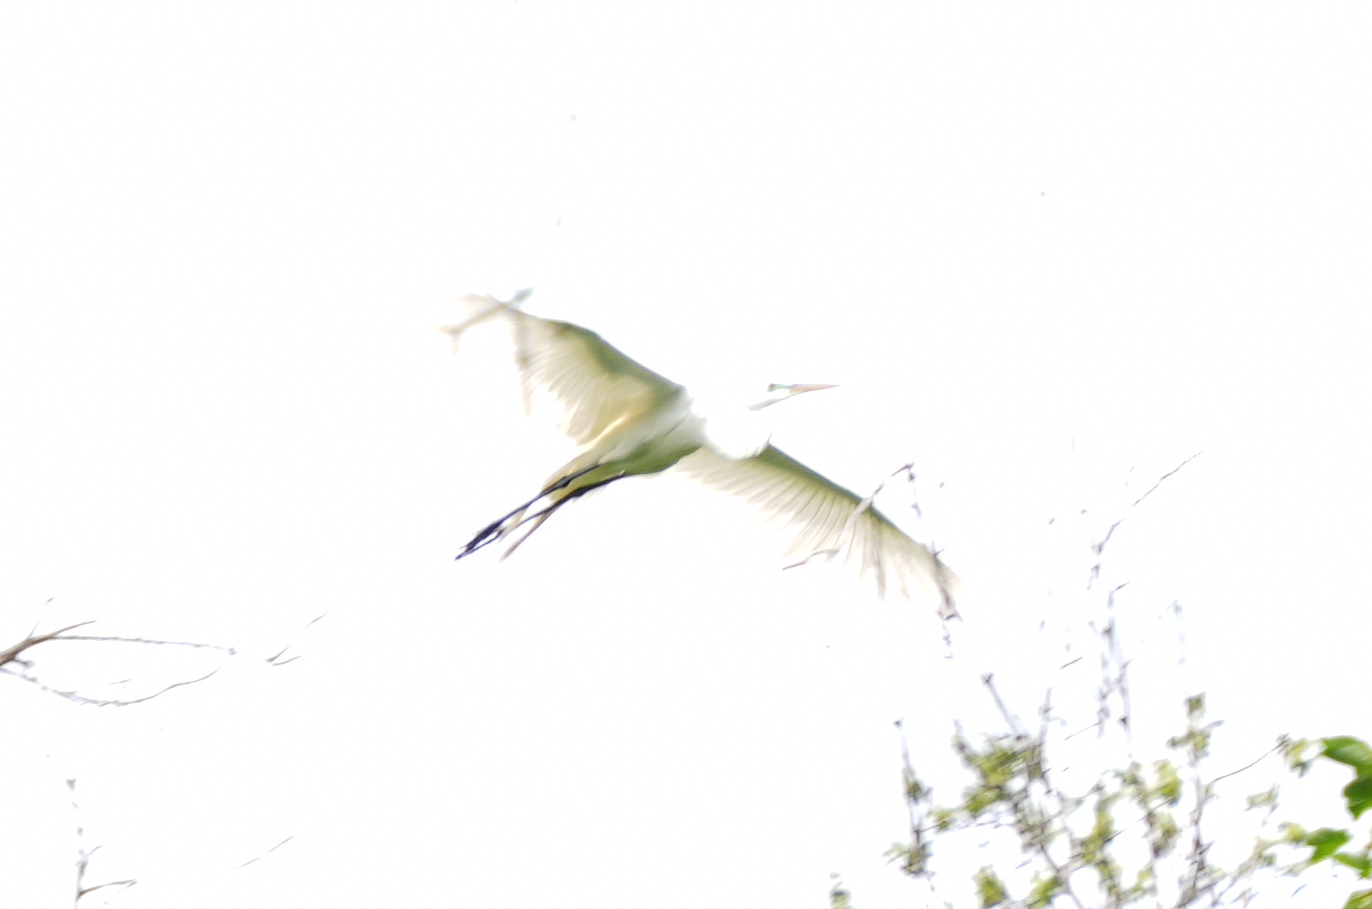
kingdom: Animalia
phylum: Chordata
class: Aves
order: Pelecaniformes
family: Ardeidae
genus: Ardea
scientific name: Ardea alba
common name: Great egret
